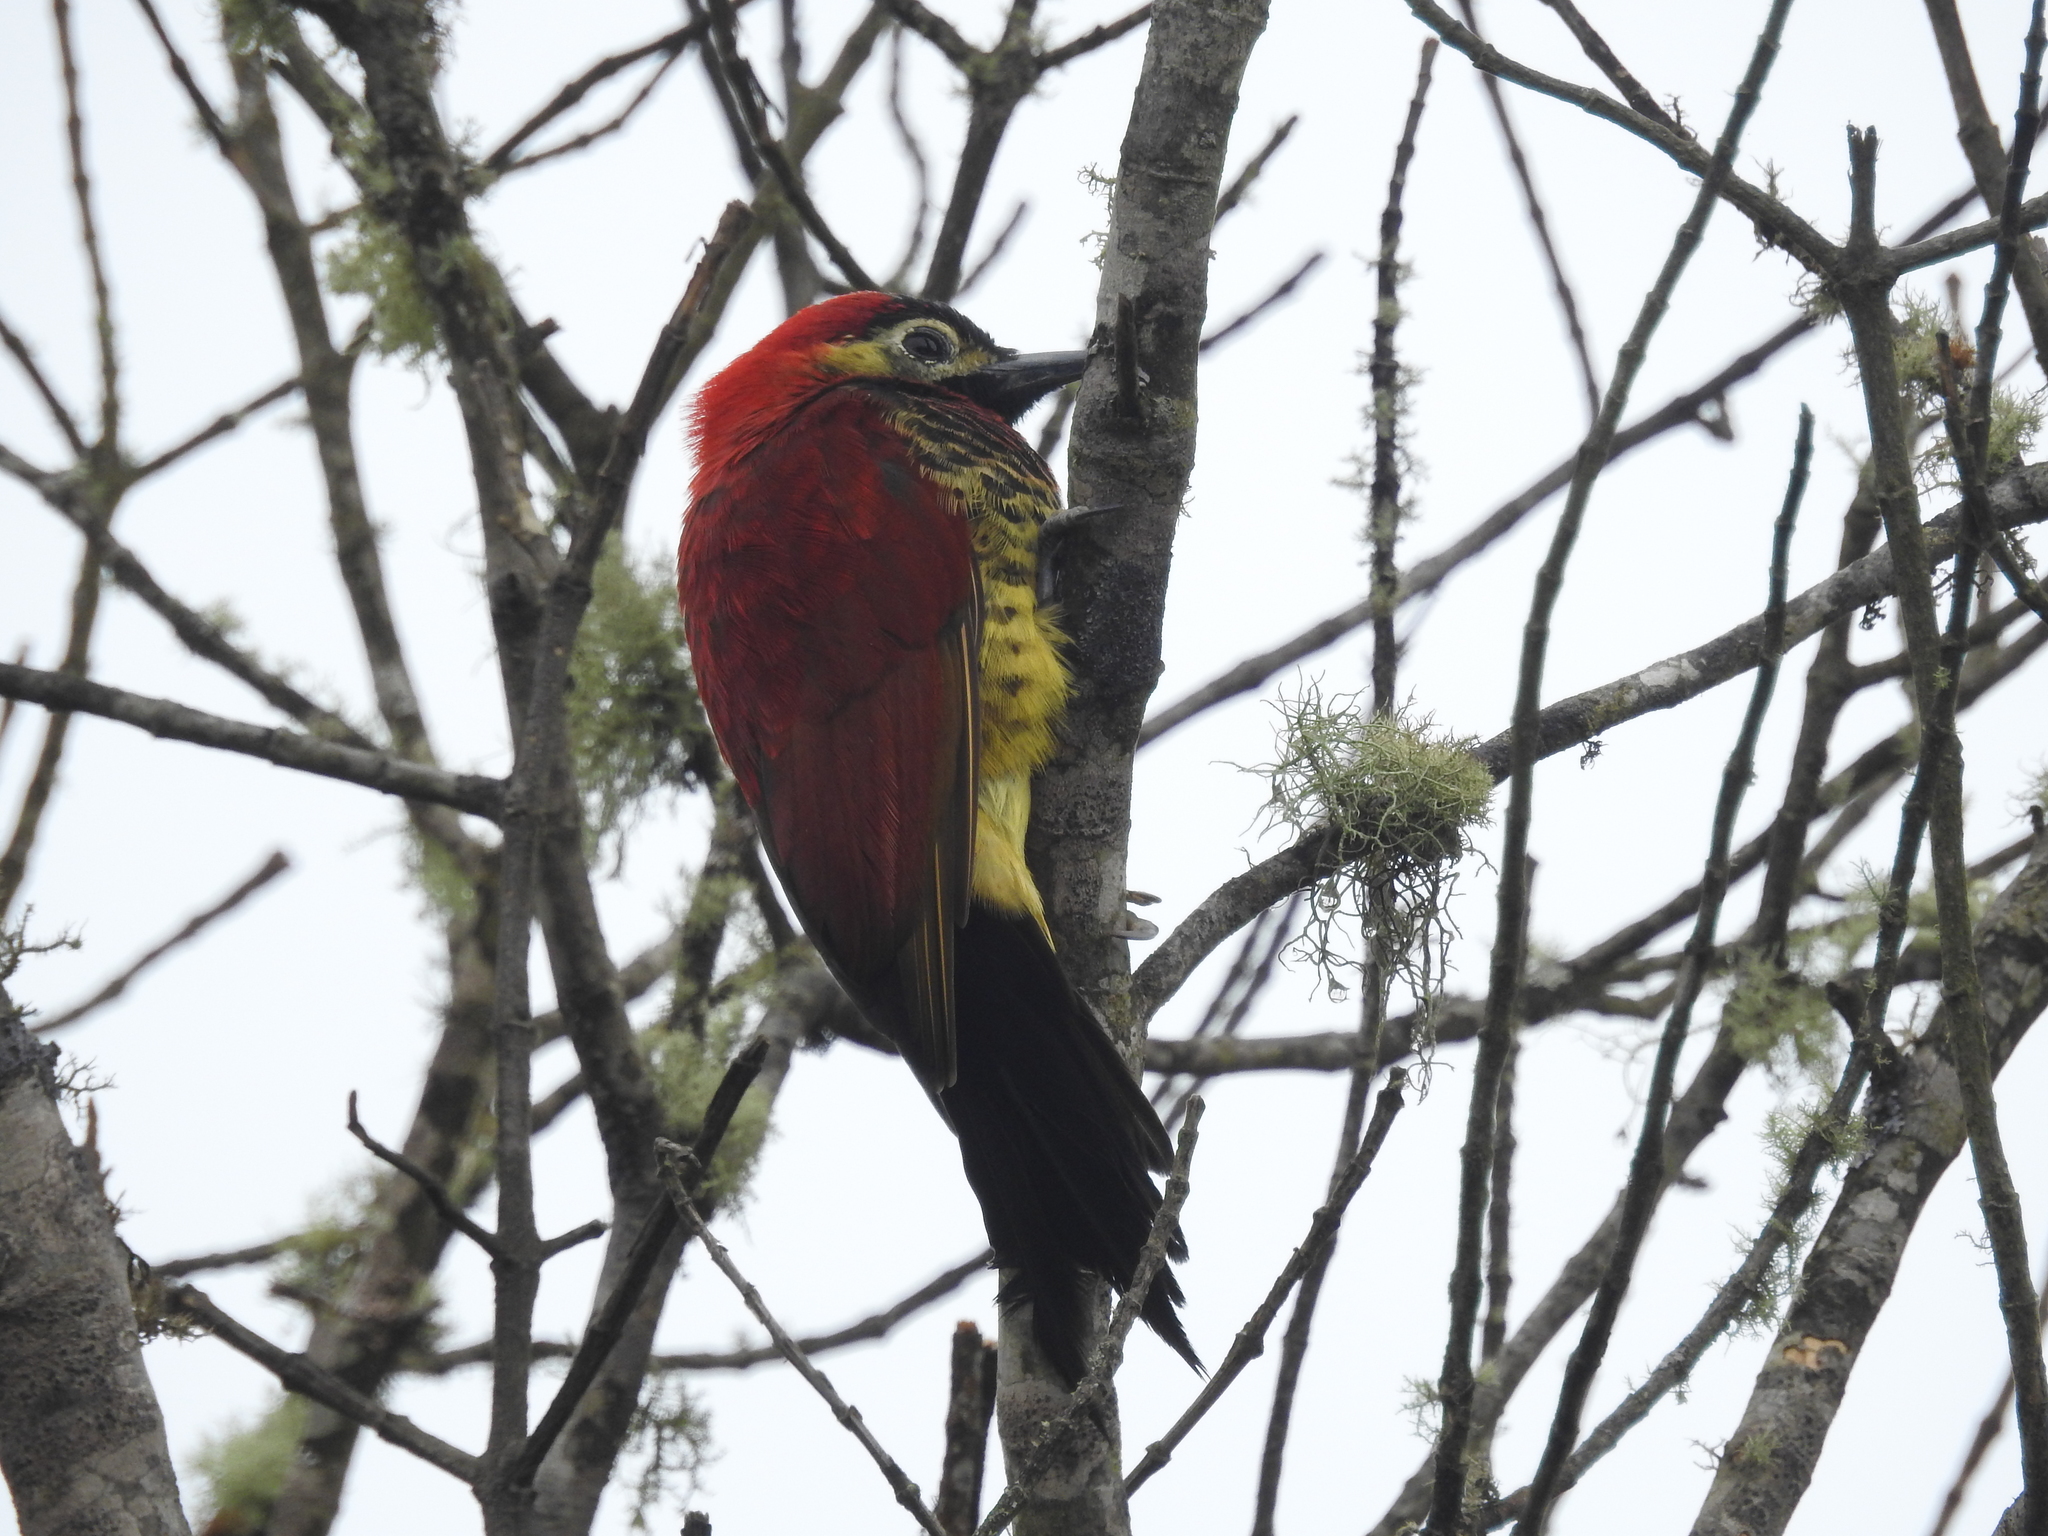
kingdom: Animalia
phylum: Chordata
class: Aves
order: Piciformes
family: Picidae
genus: Colaptes
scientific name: Colaptes rivolii
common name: Crimson-mantled woodpecker
